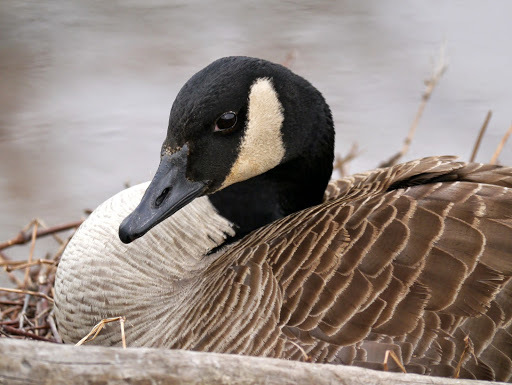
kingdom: Animalia
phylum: Chordata
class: Aves
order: Anseriformes
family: Anatidae
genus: Branta
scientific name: Branta canadensis
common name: Canada goose
